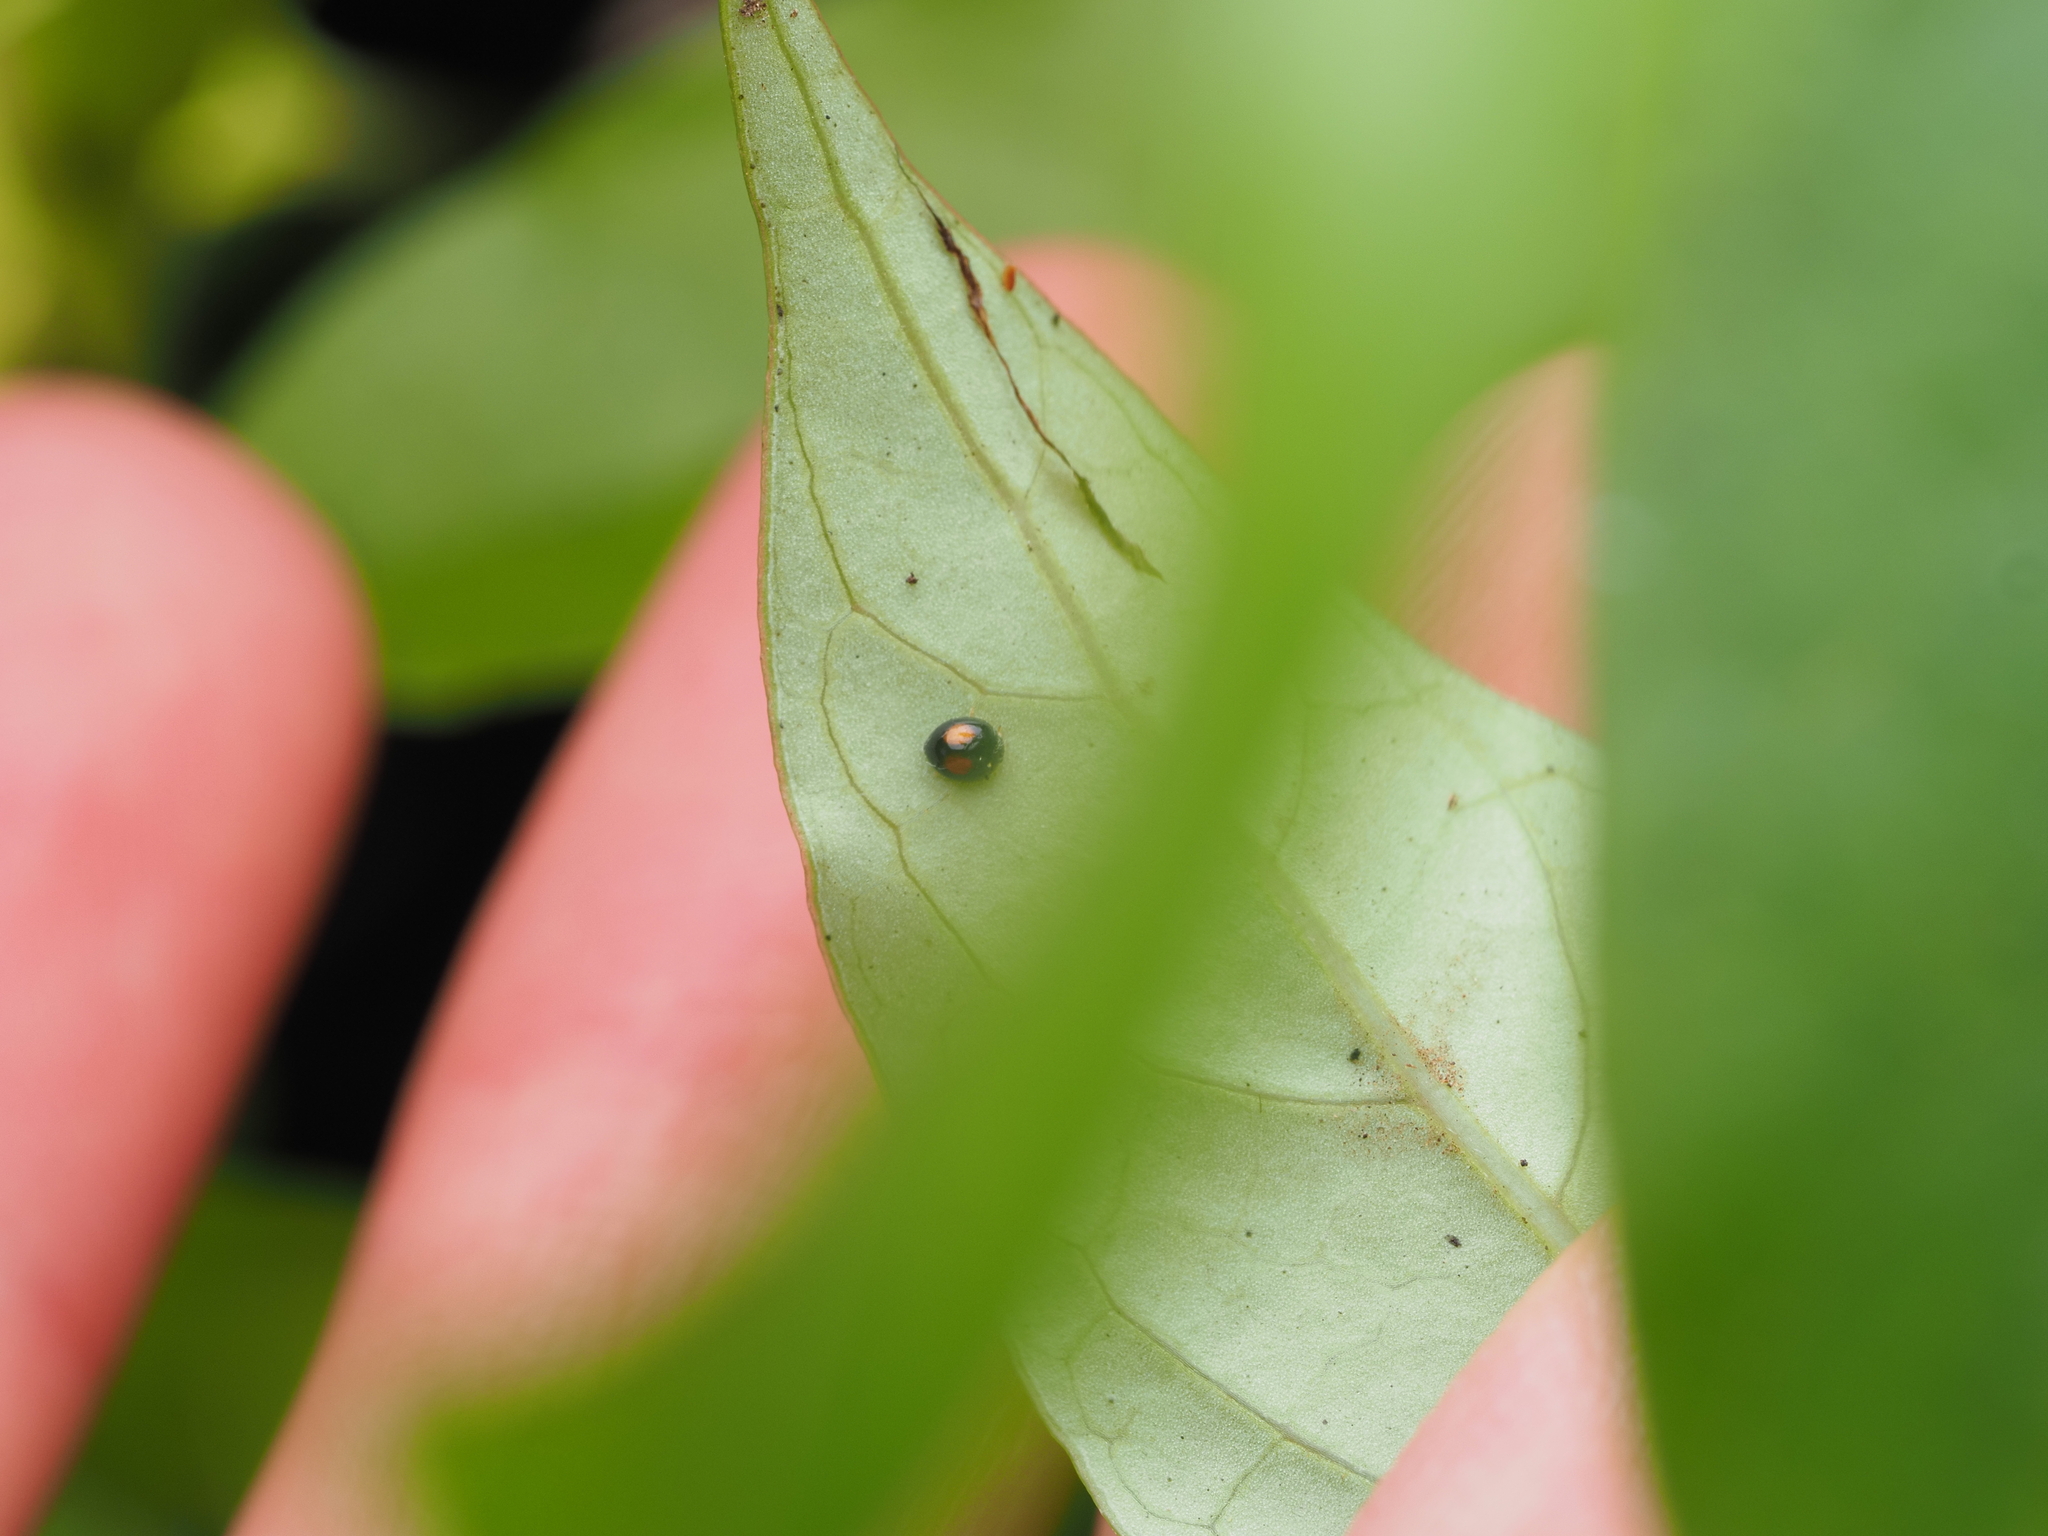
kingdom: Animalia
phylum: Arthropoda
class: Insecta
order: Coleoptera
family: Coccinellidae
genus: Serangium
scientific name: Serangium maculigerum
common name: Lady beetle
